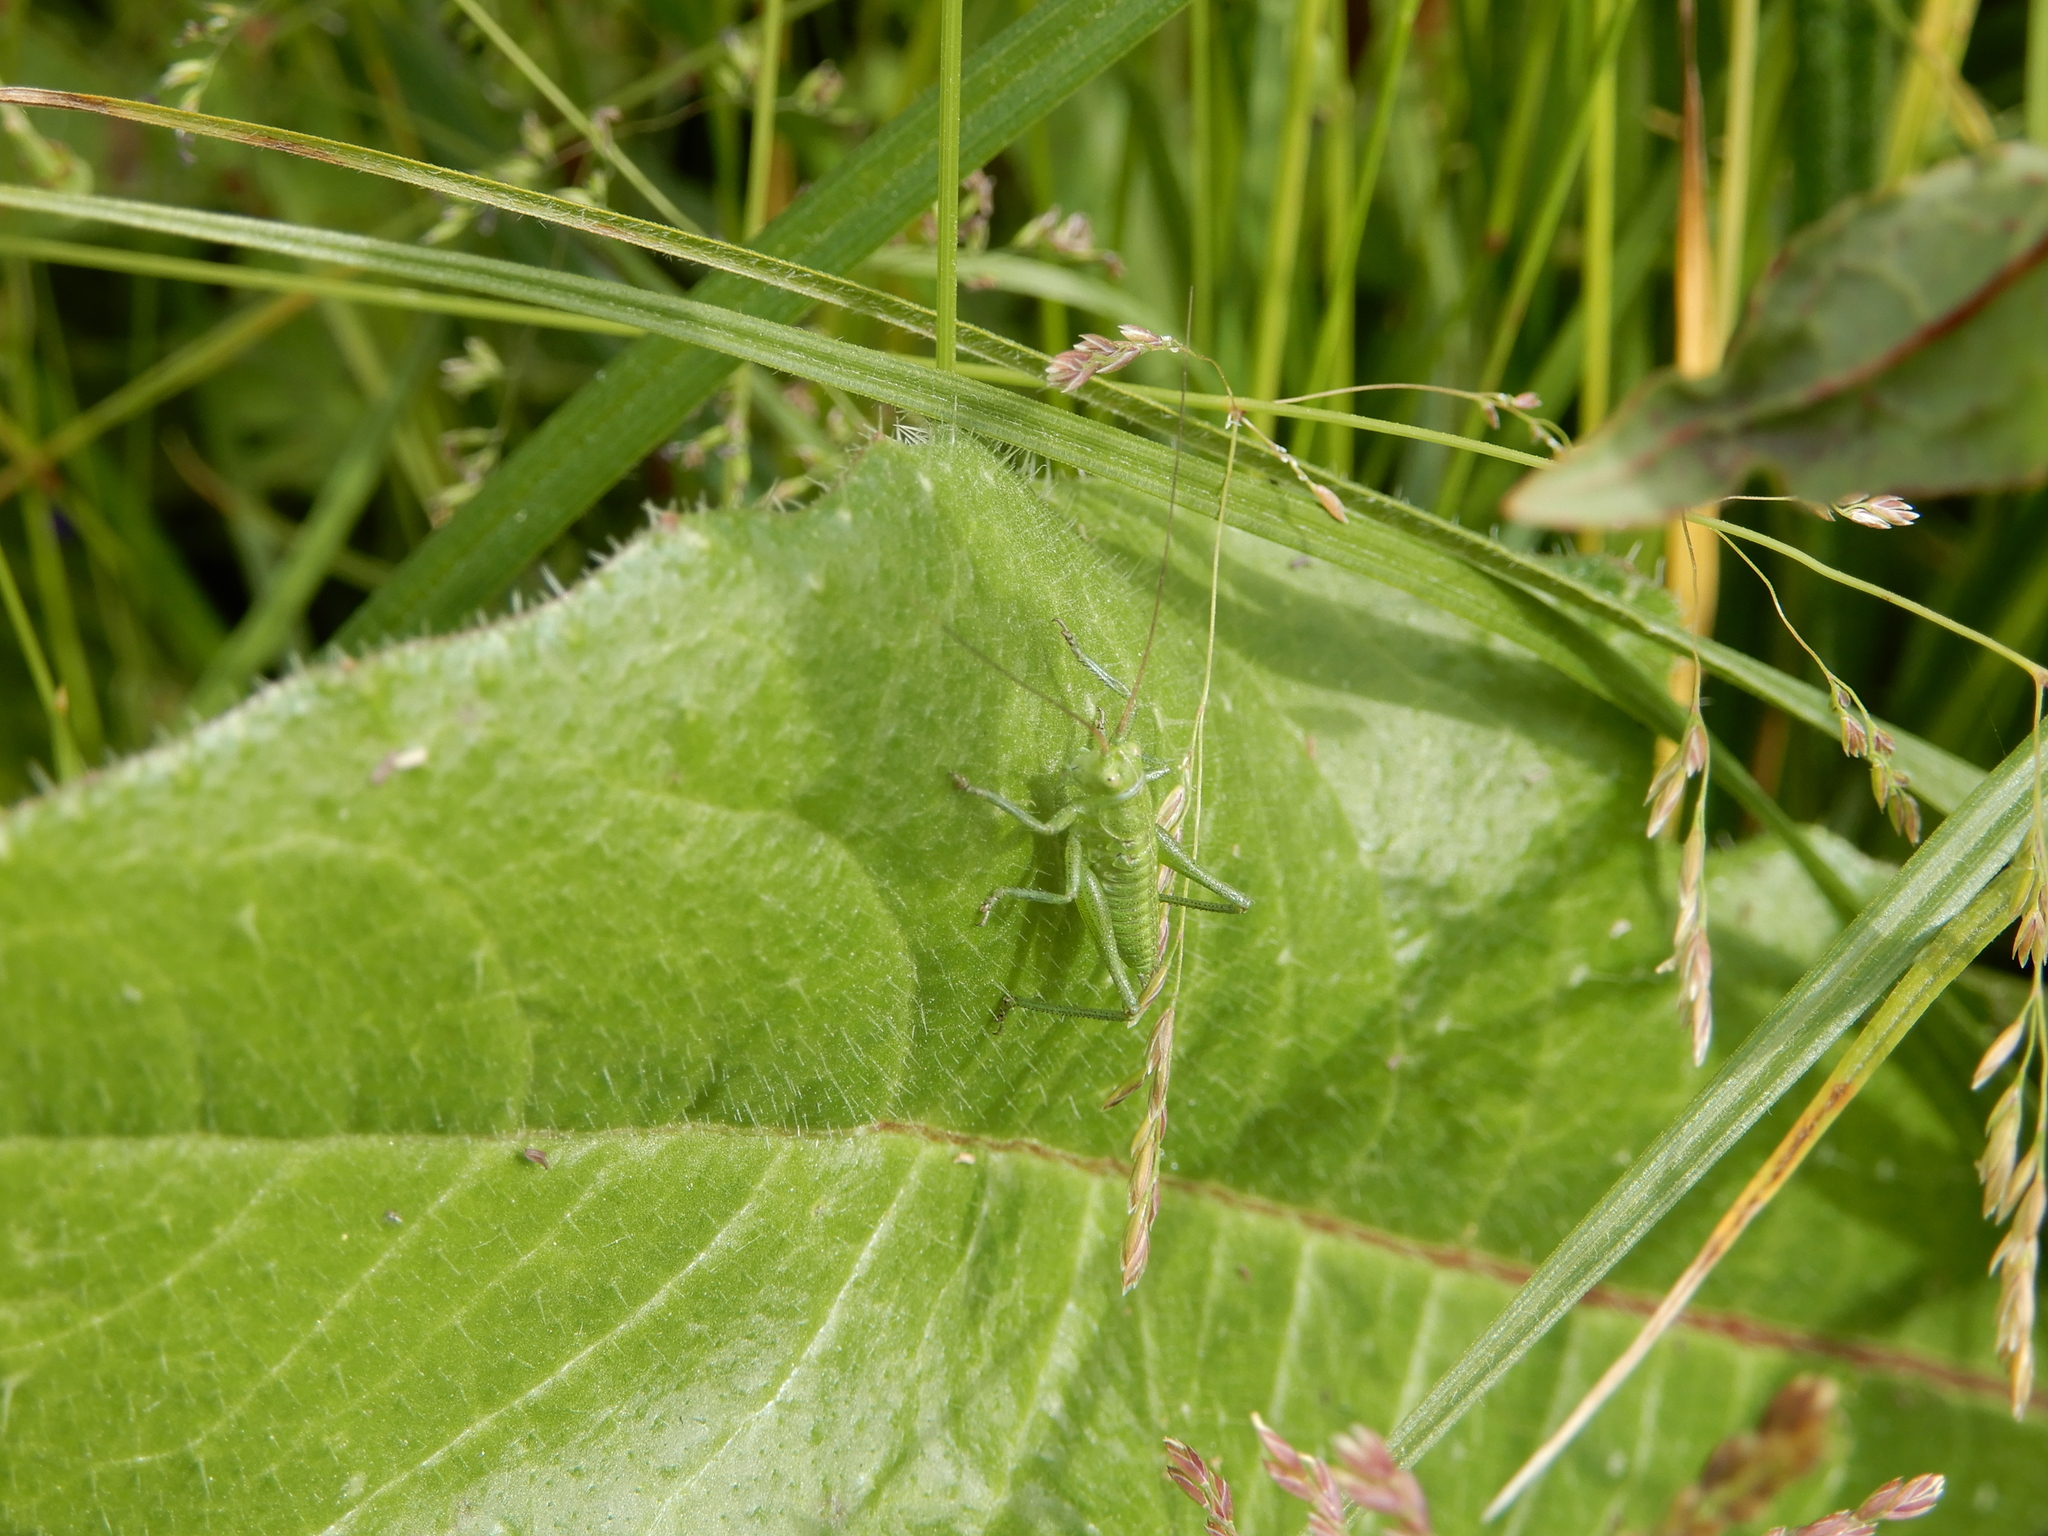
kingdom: Animalia
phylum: Arthropoda
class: Insecta
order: Orthoptera
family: Tettigoniidae
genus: Tettigonia
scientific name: Tettigonia viridissima
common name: Great green bush-cricket
